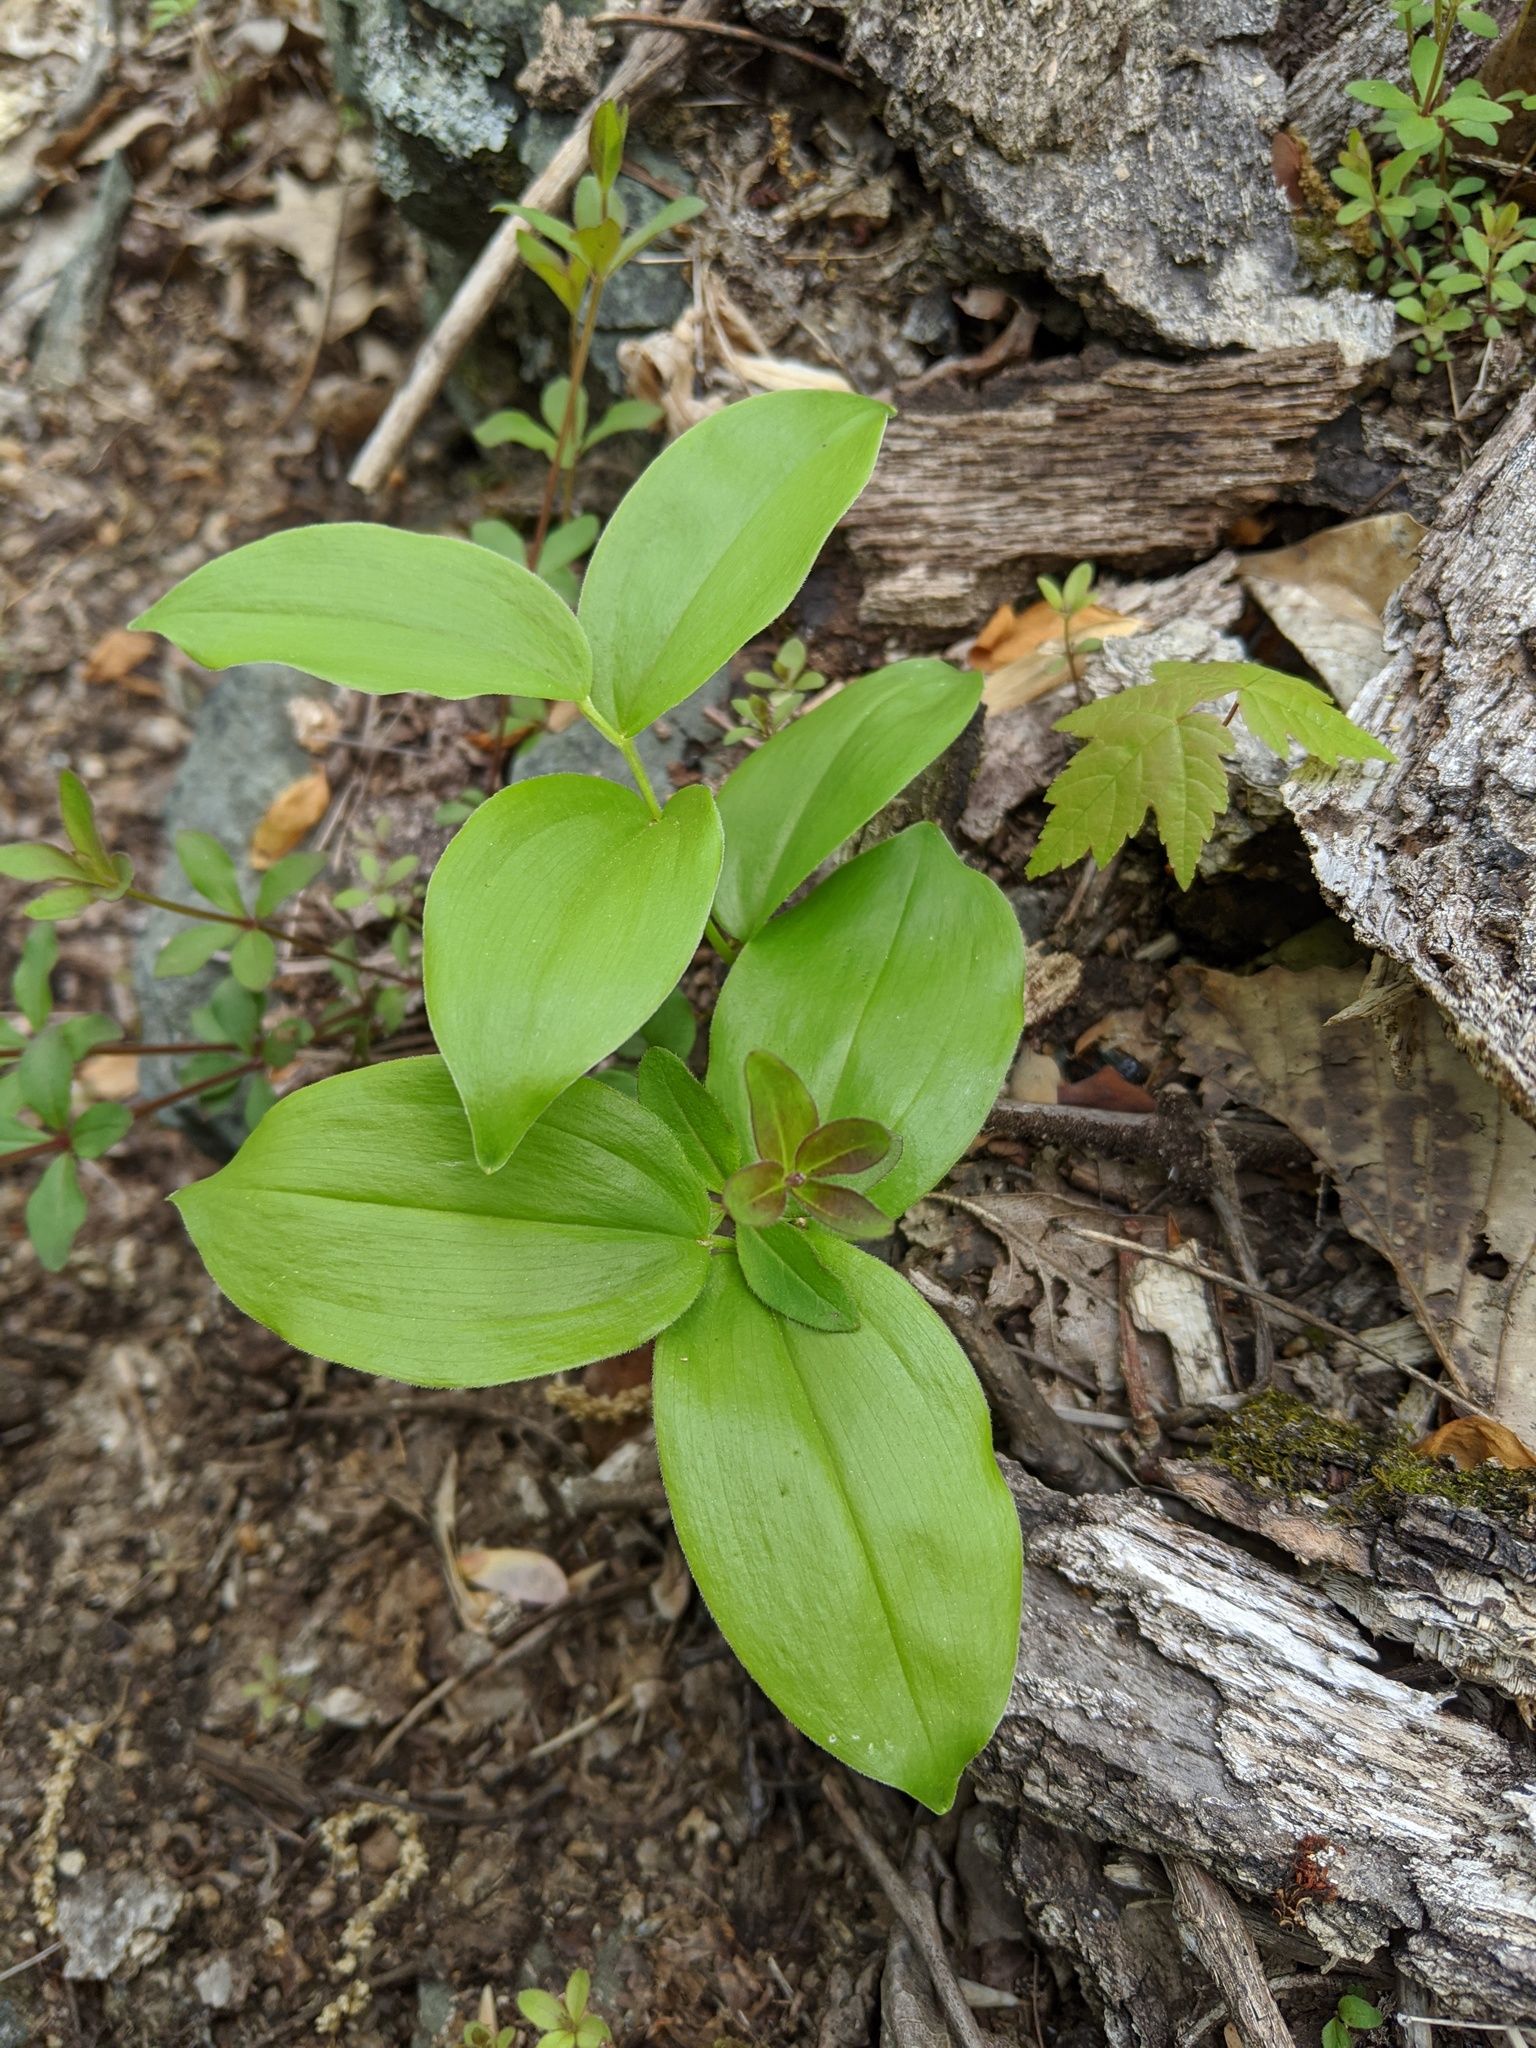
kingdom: Plantae
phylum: Tracheophyta
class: Liliopsida
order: Asparagales
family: Asparagaceae
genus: Maianthemum
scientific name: Maianthemum racemosum
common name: False spikenard
